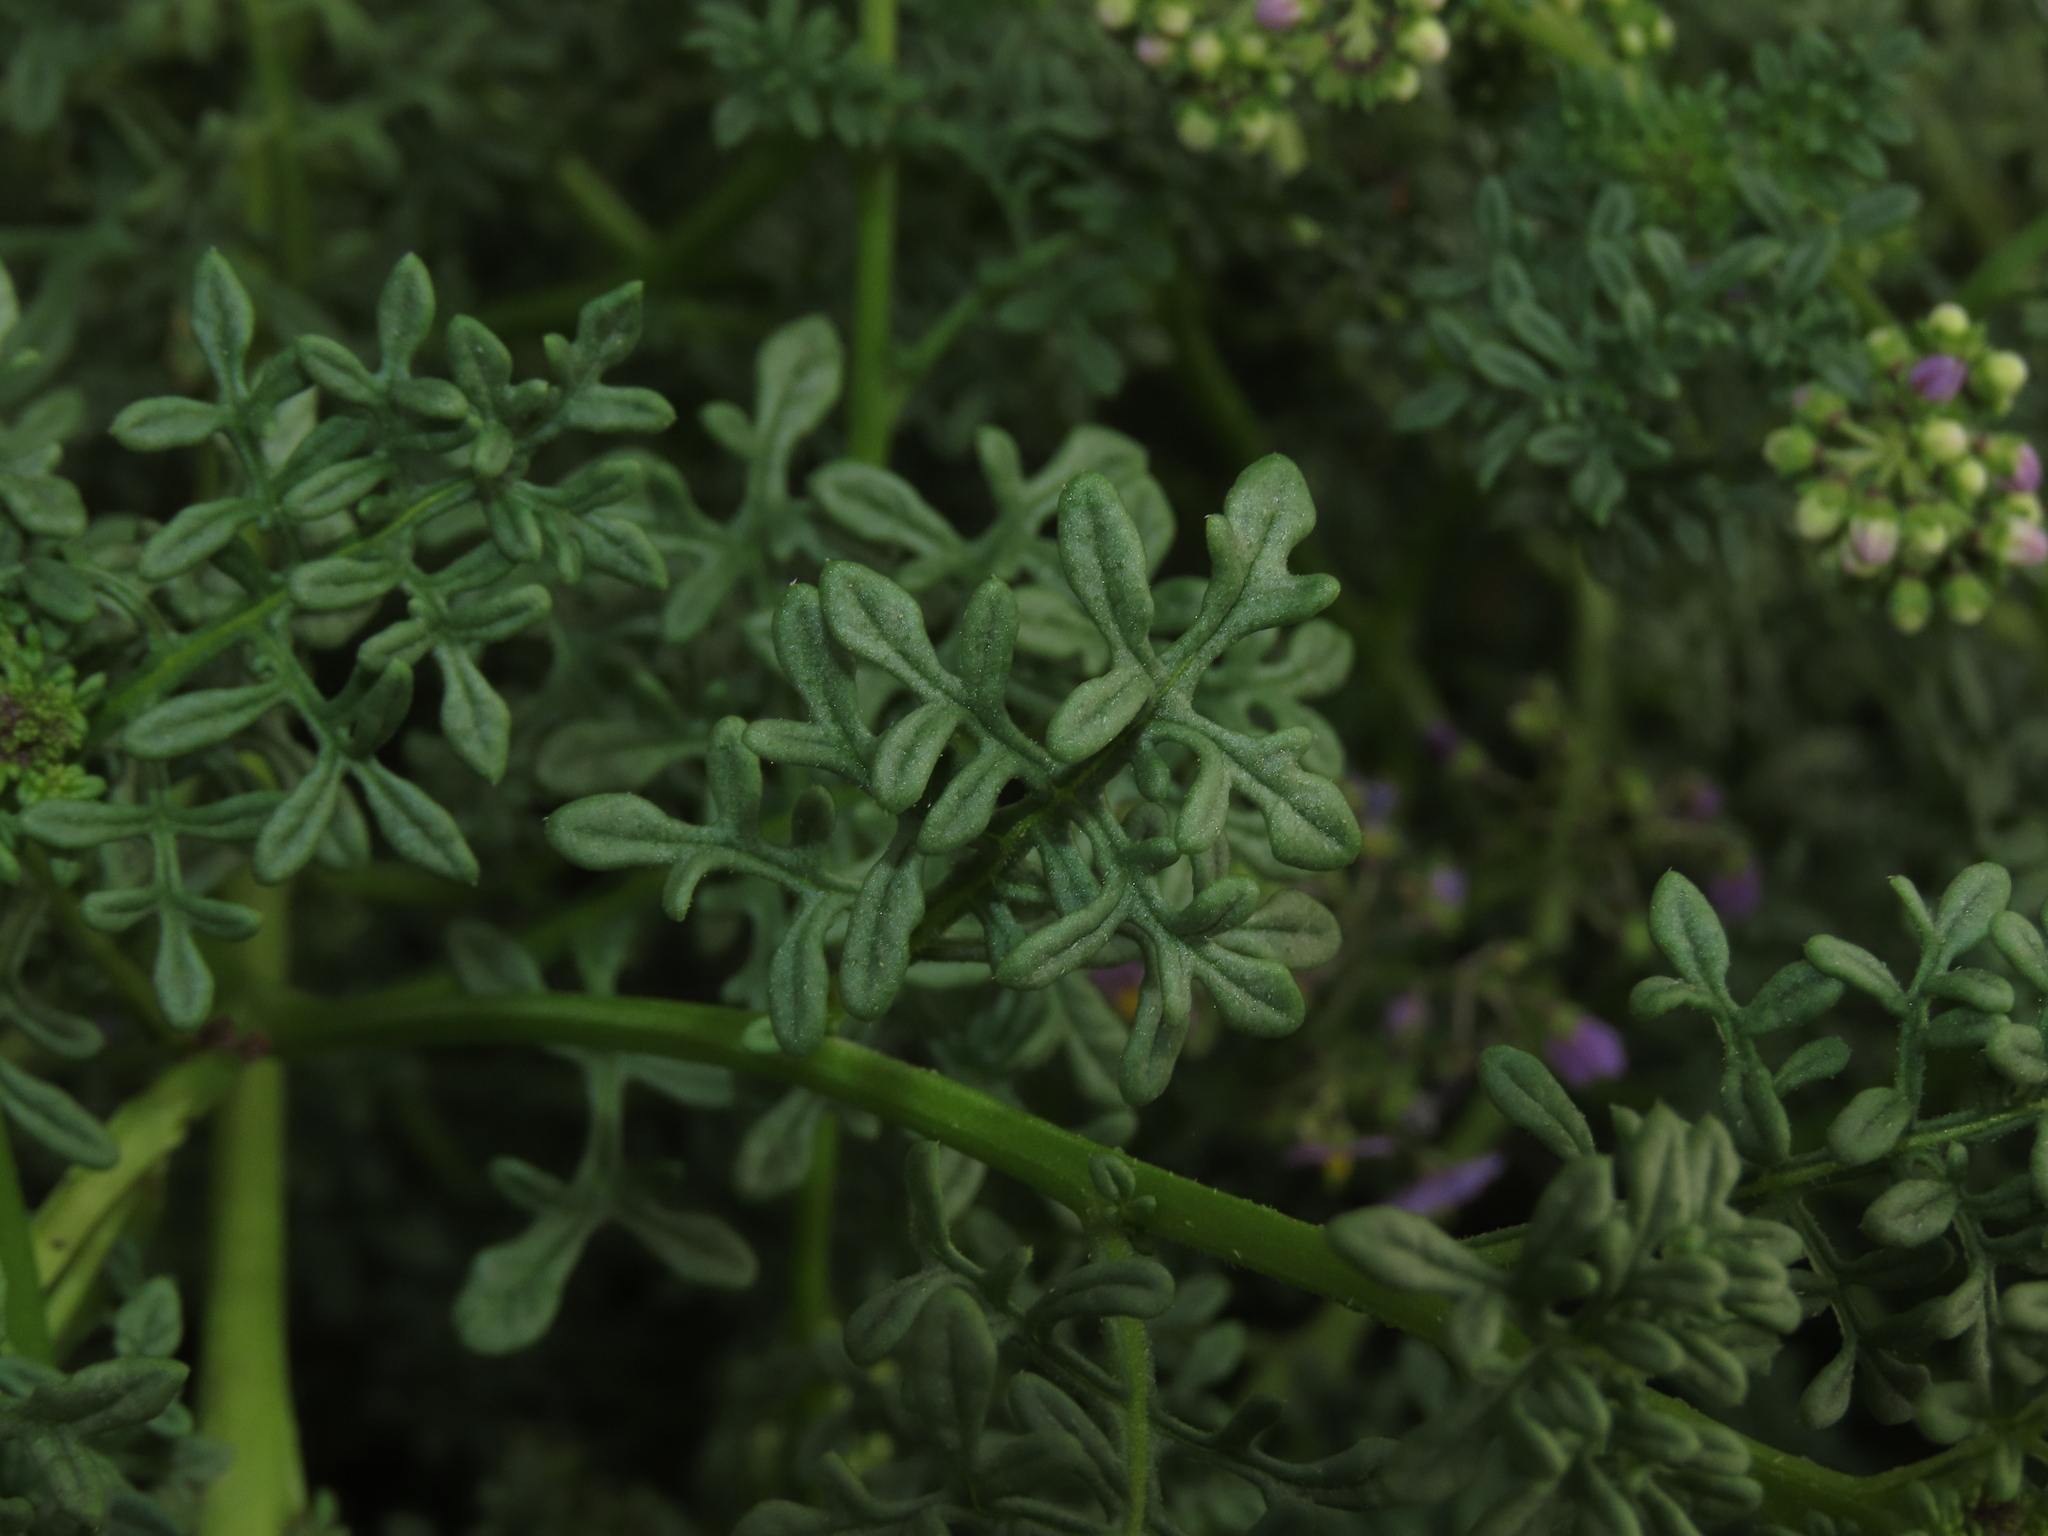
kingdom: Plantae
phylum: Tracheophyta
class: Magnoliopsida
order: Solanales
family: Solanaceae
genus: Solanum
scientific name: Solanum brachyantherum
